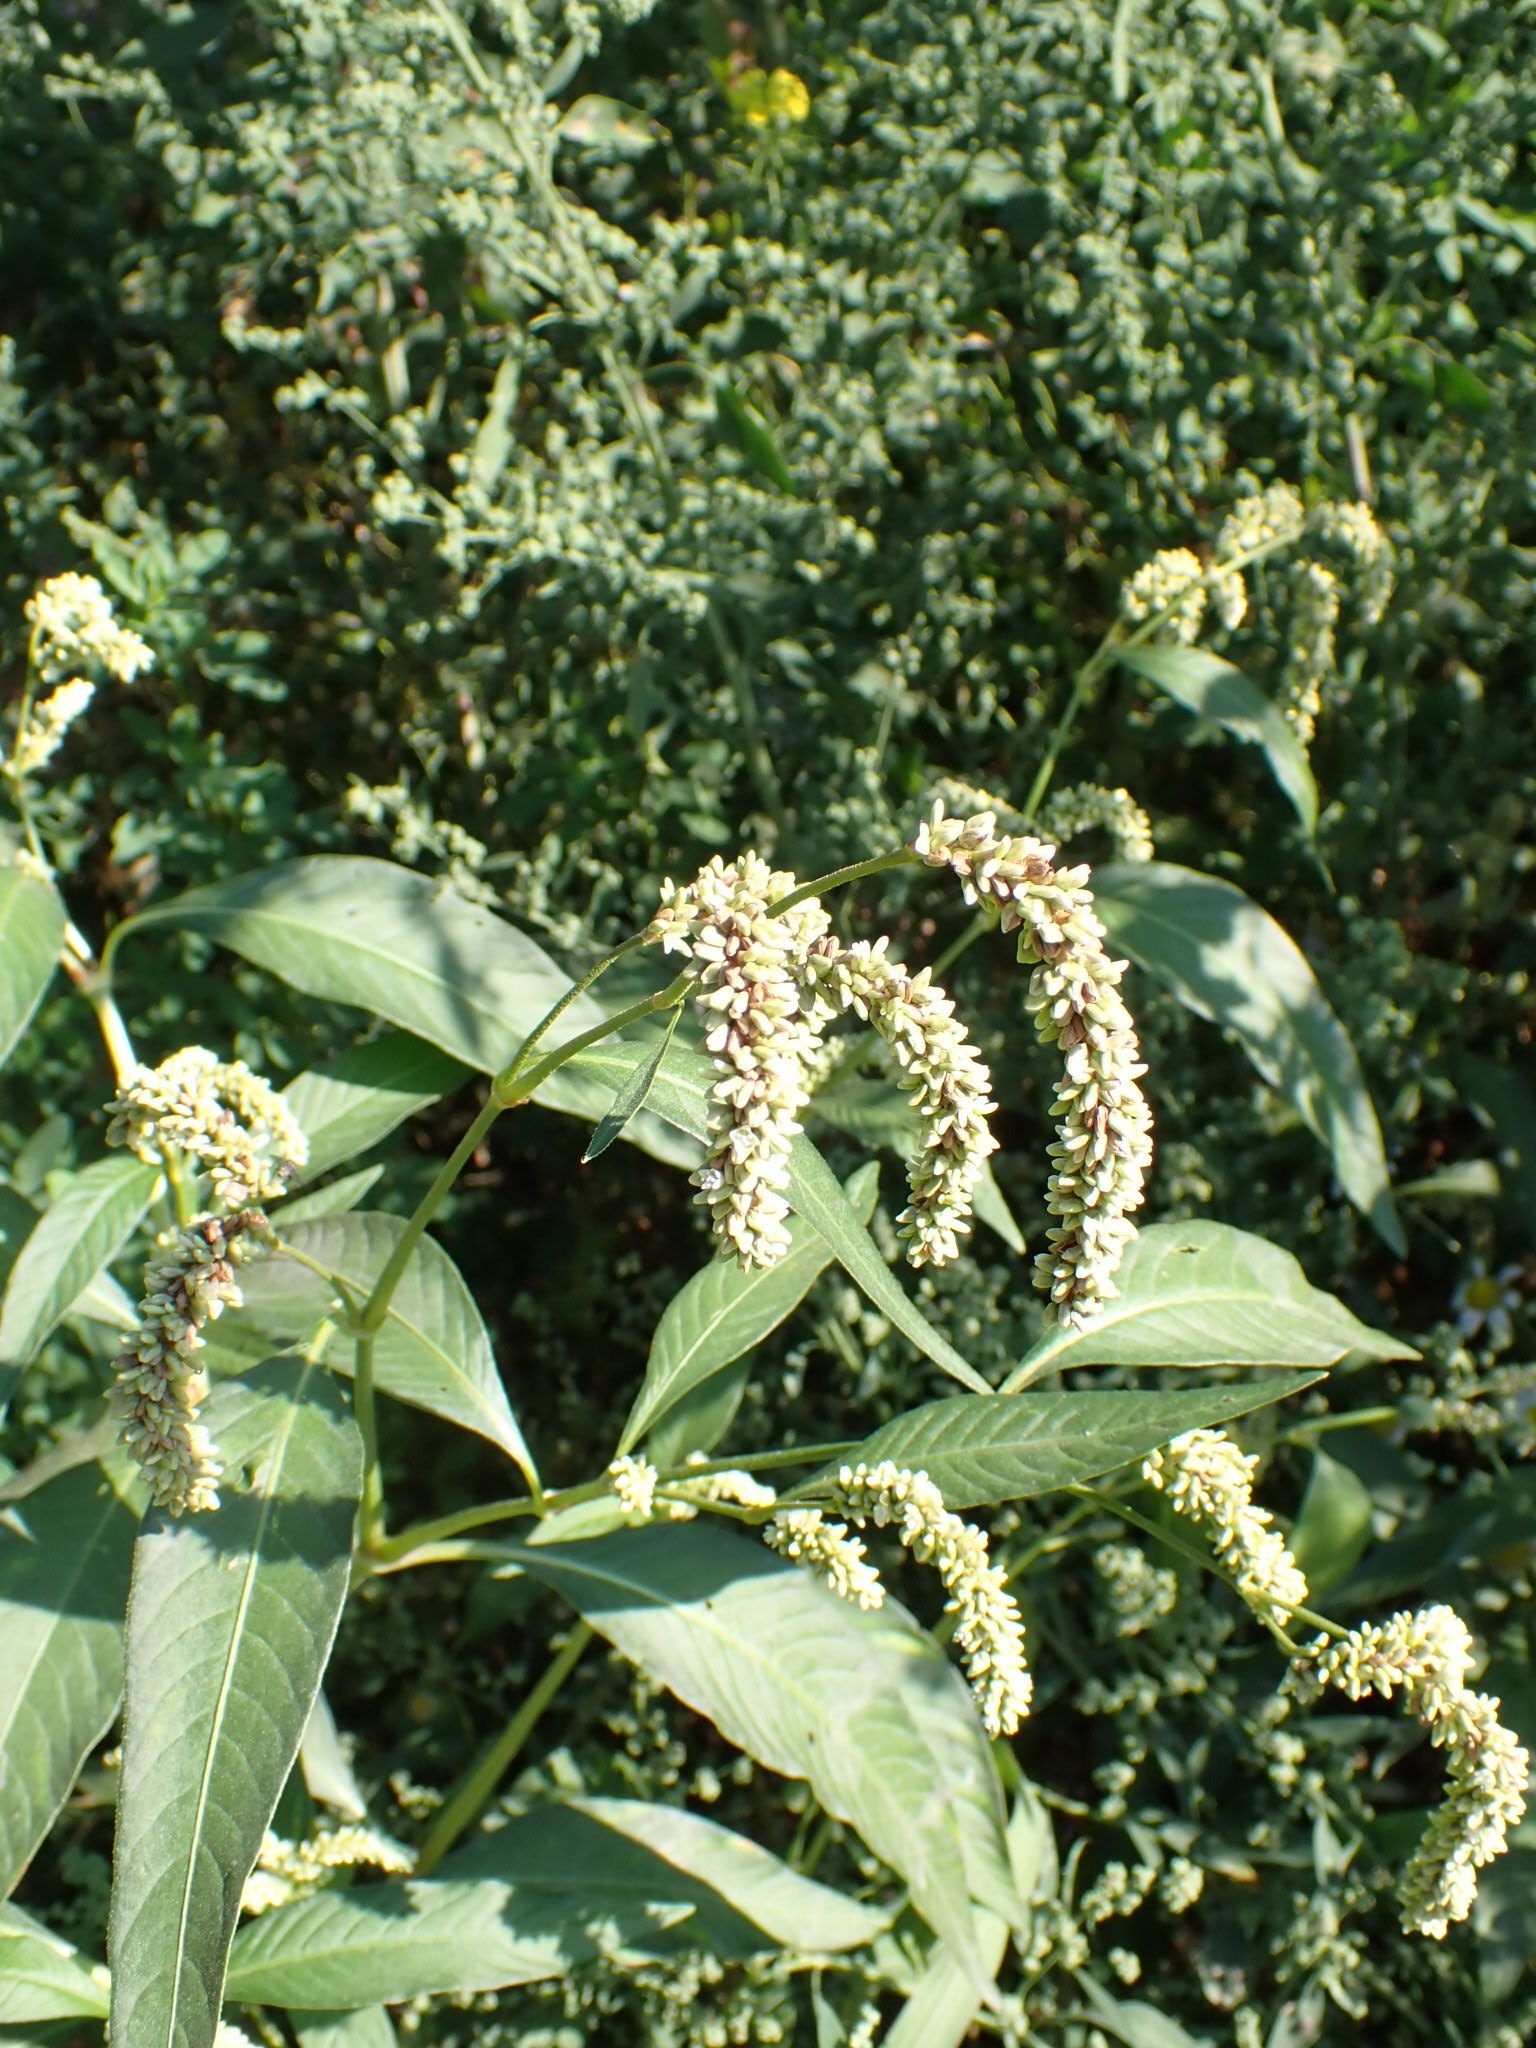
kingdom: Plantae
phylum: Tracheophyta
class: Magnoliopsida
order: Caryophyllales
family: Polygonaceae
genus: Persicaria
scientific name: Persicaria lapathifolia
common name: Curlytop knotweed
